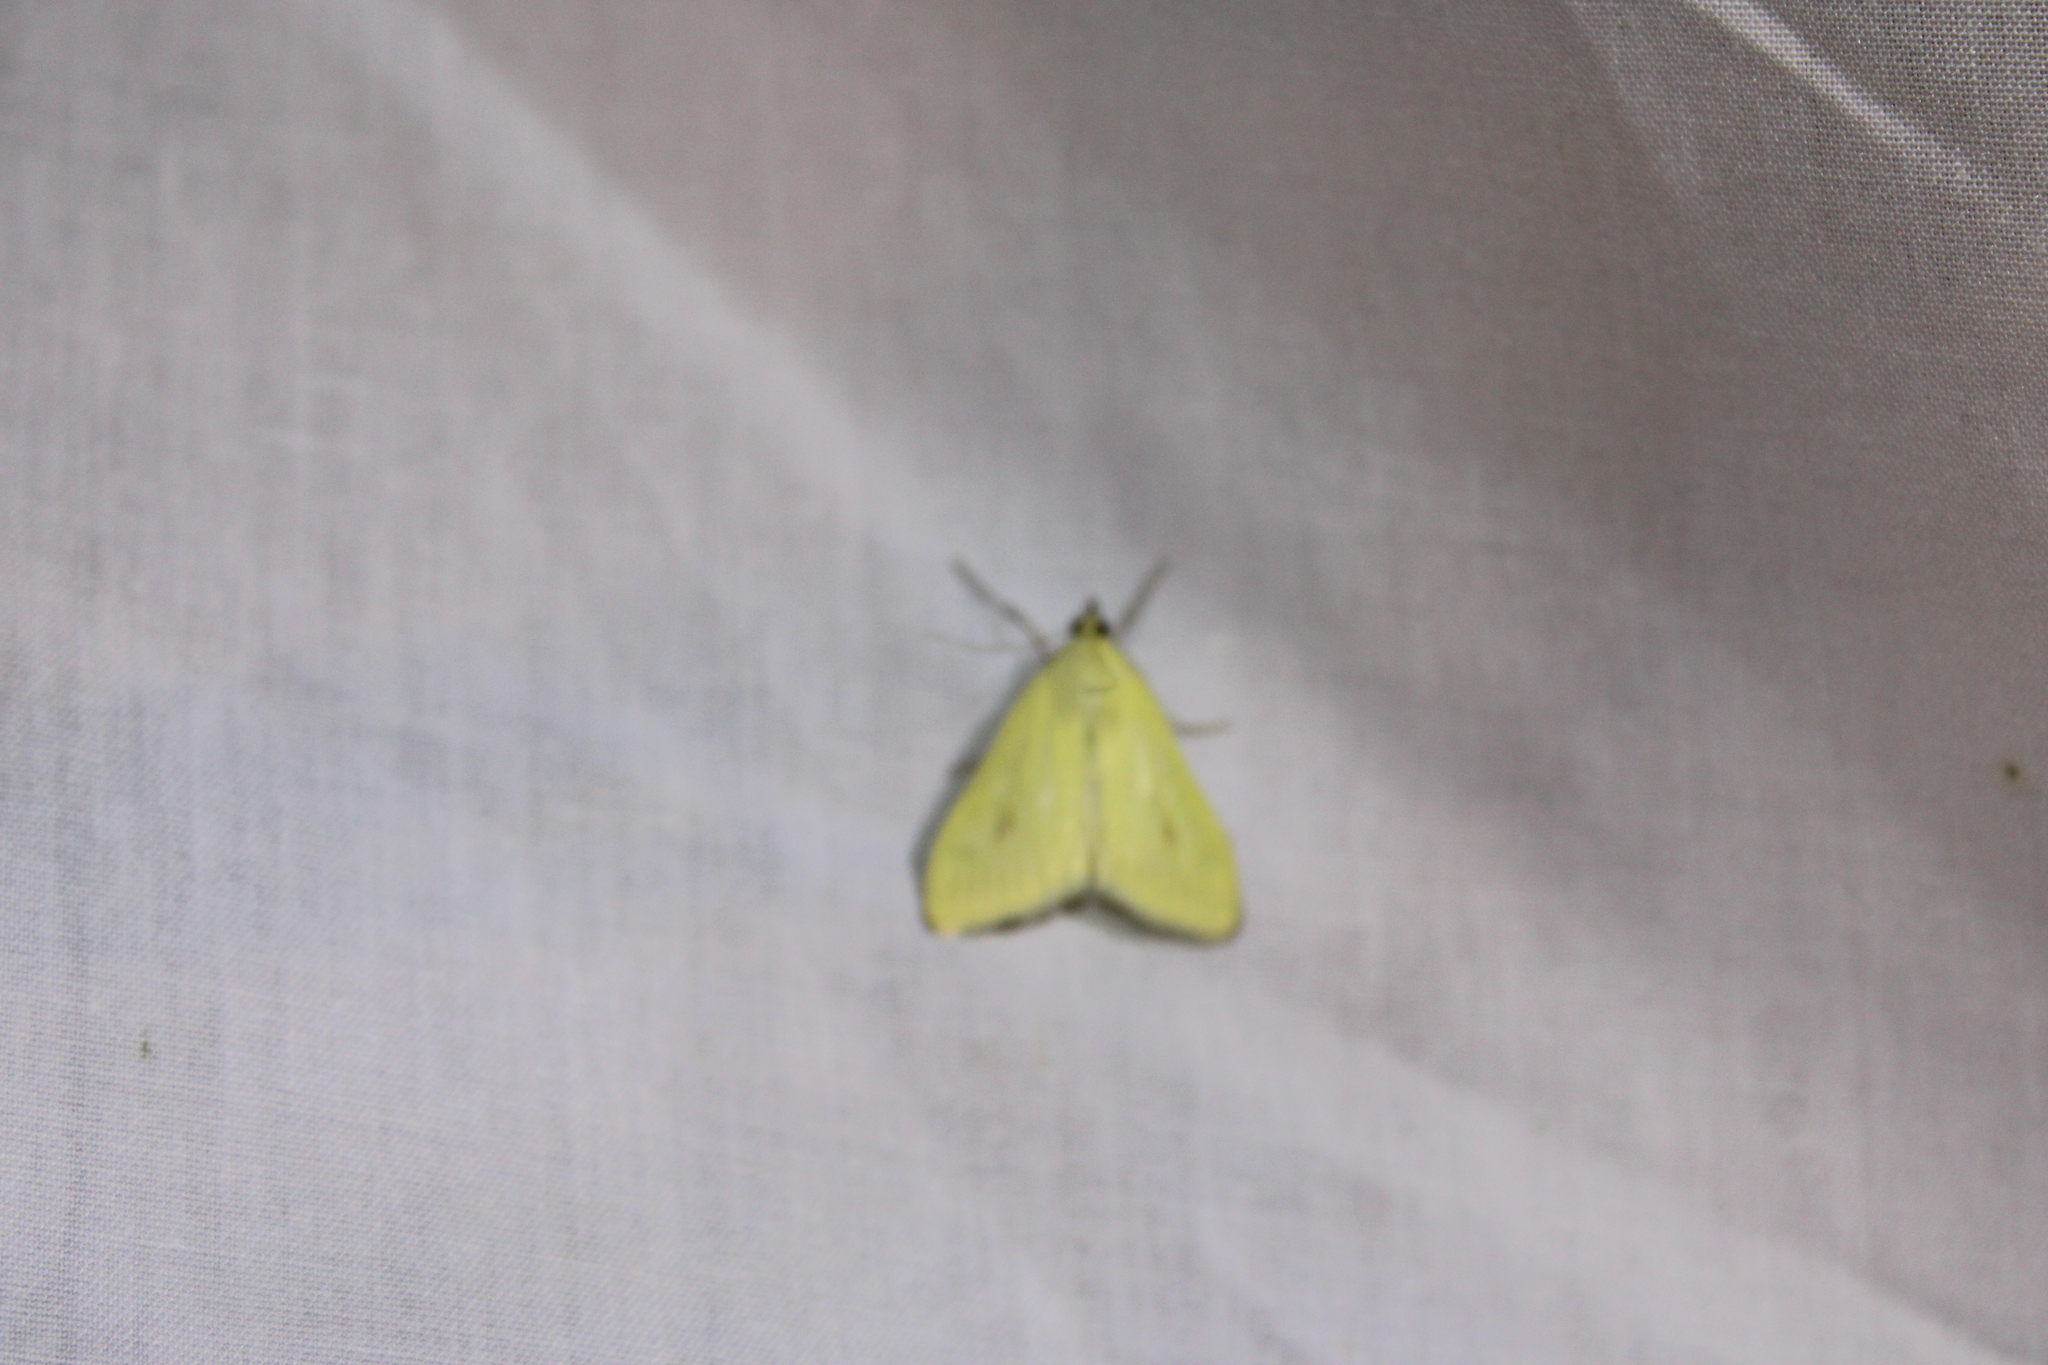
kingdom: Animalia
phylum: Arthropoda
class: Insecta
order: Lepidoptera
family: Crambidae
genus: Sitochroa
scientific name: Sitochroa palealis
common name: Greenish-yellow sitochroa moth
